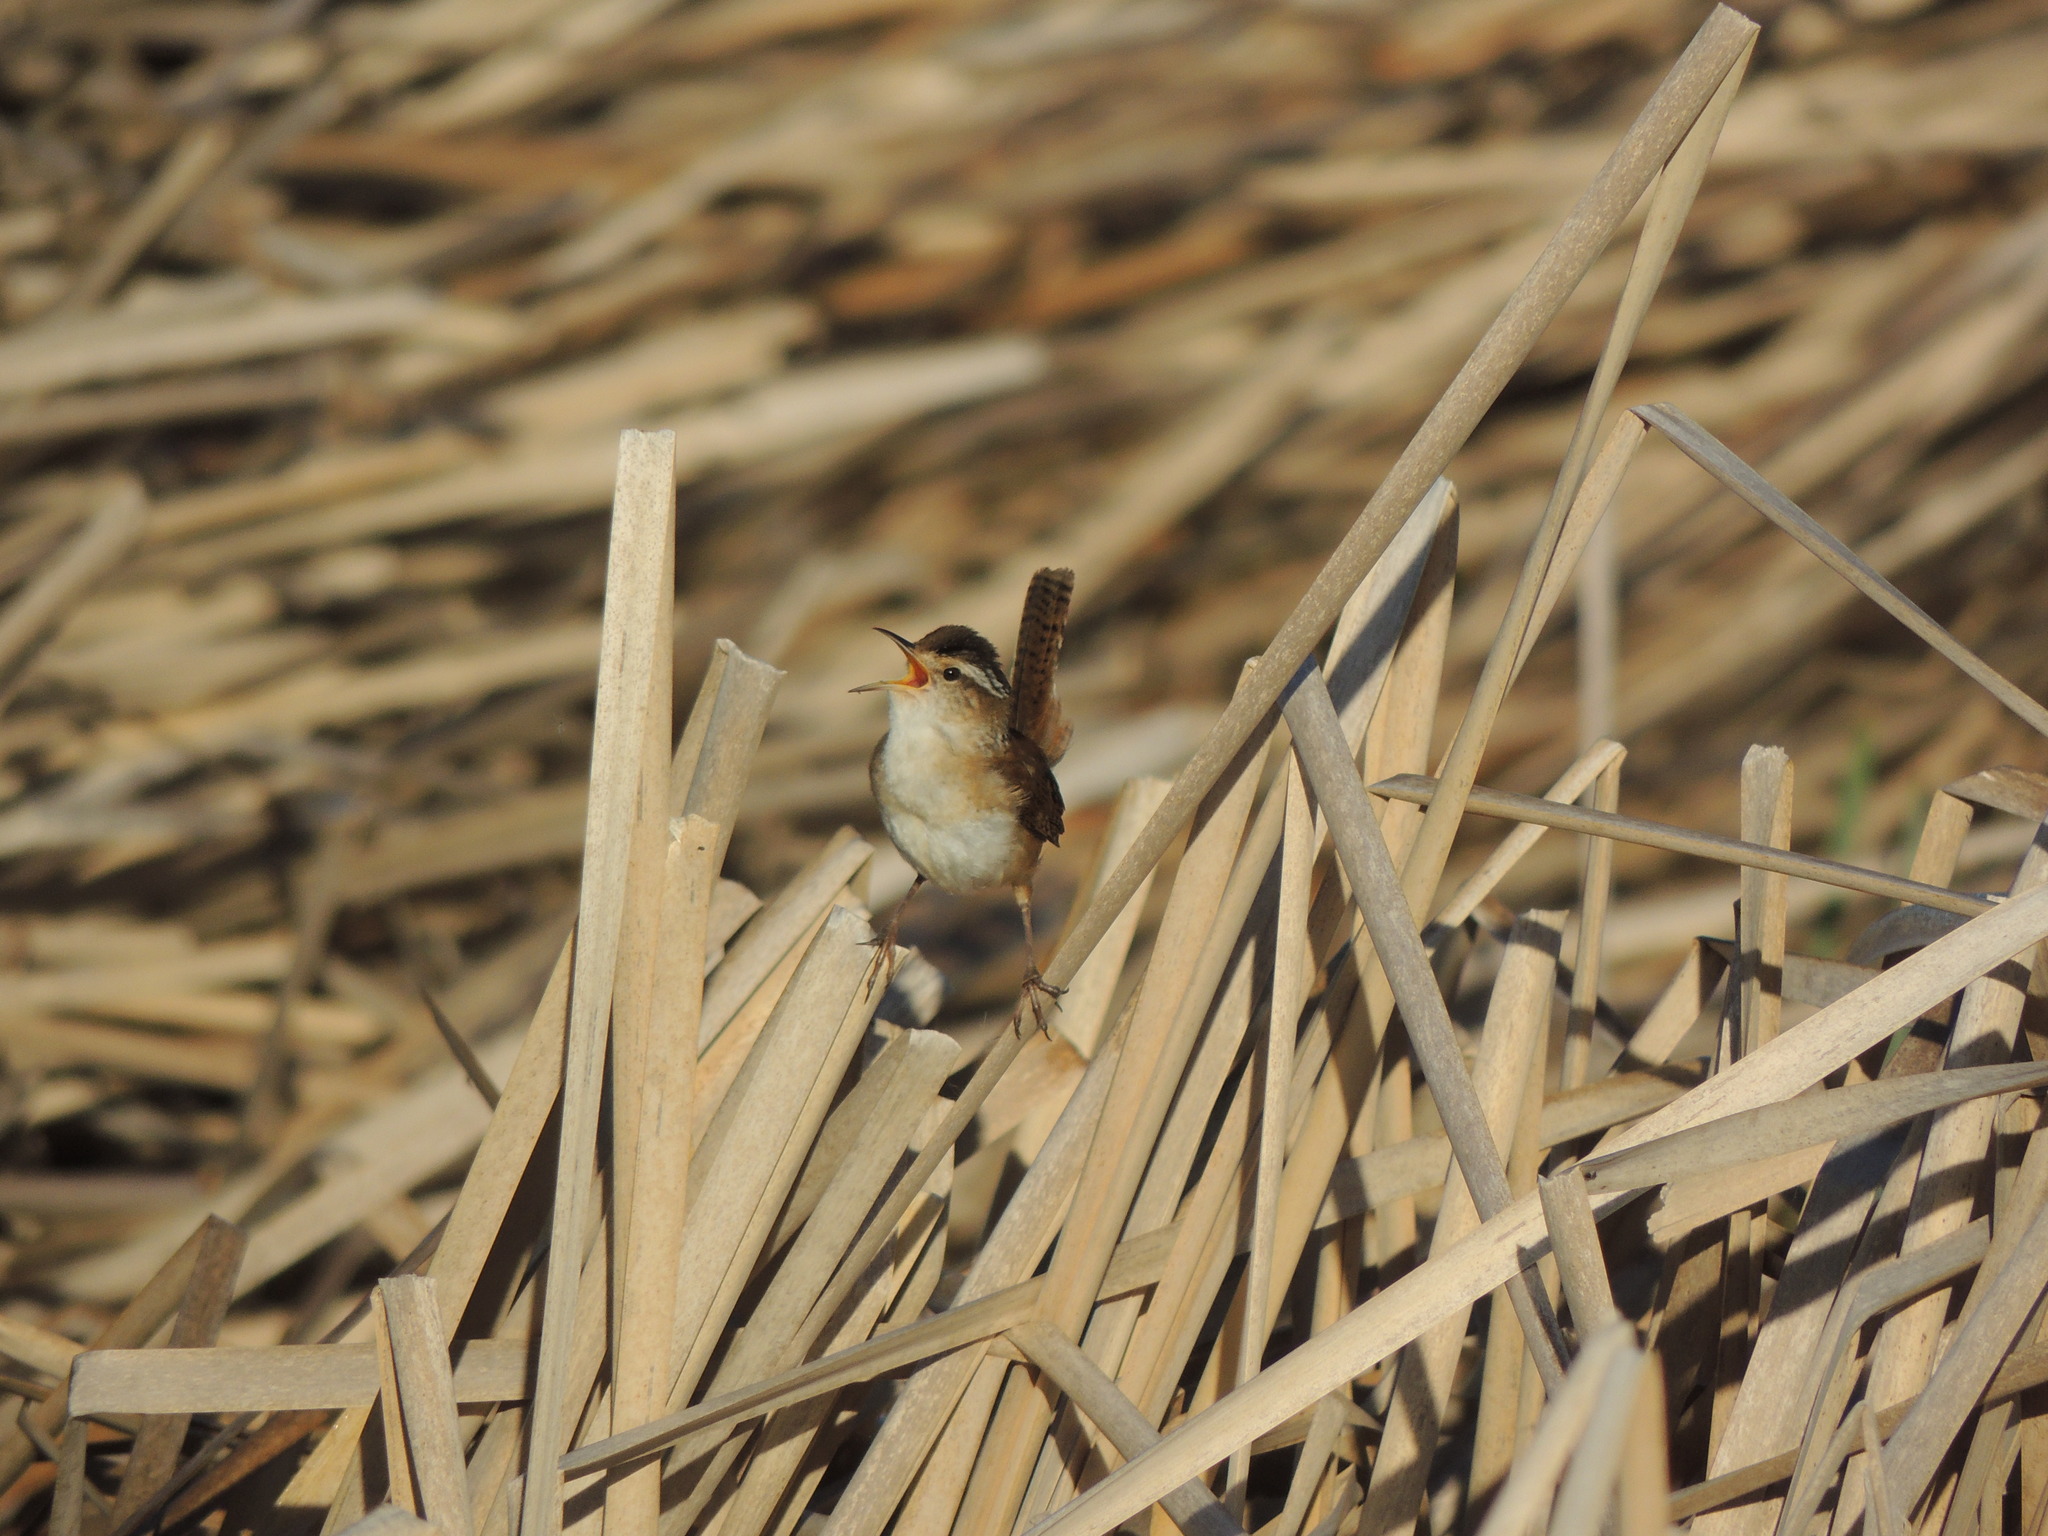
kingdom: Animalia
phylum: Chordata
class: Aves
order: Passeriformes
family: Troglodytidae
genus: Cistothorus
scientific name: Cistothorus palustris
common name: Marsh wren
